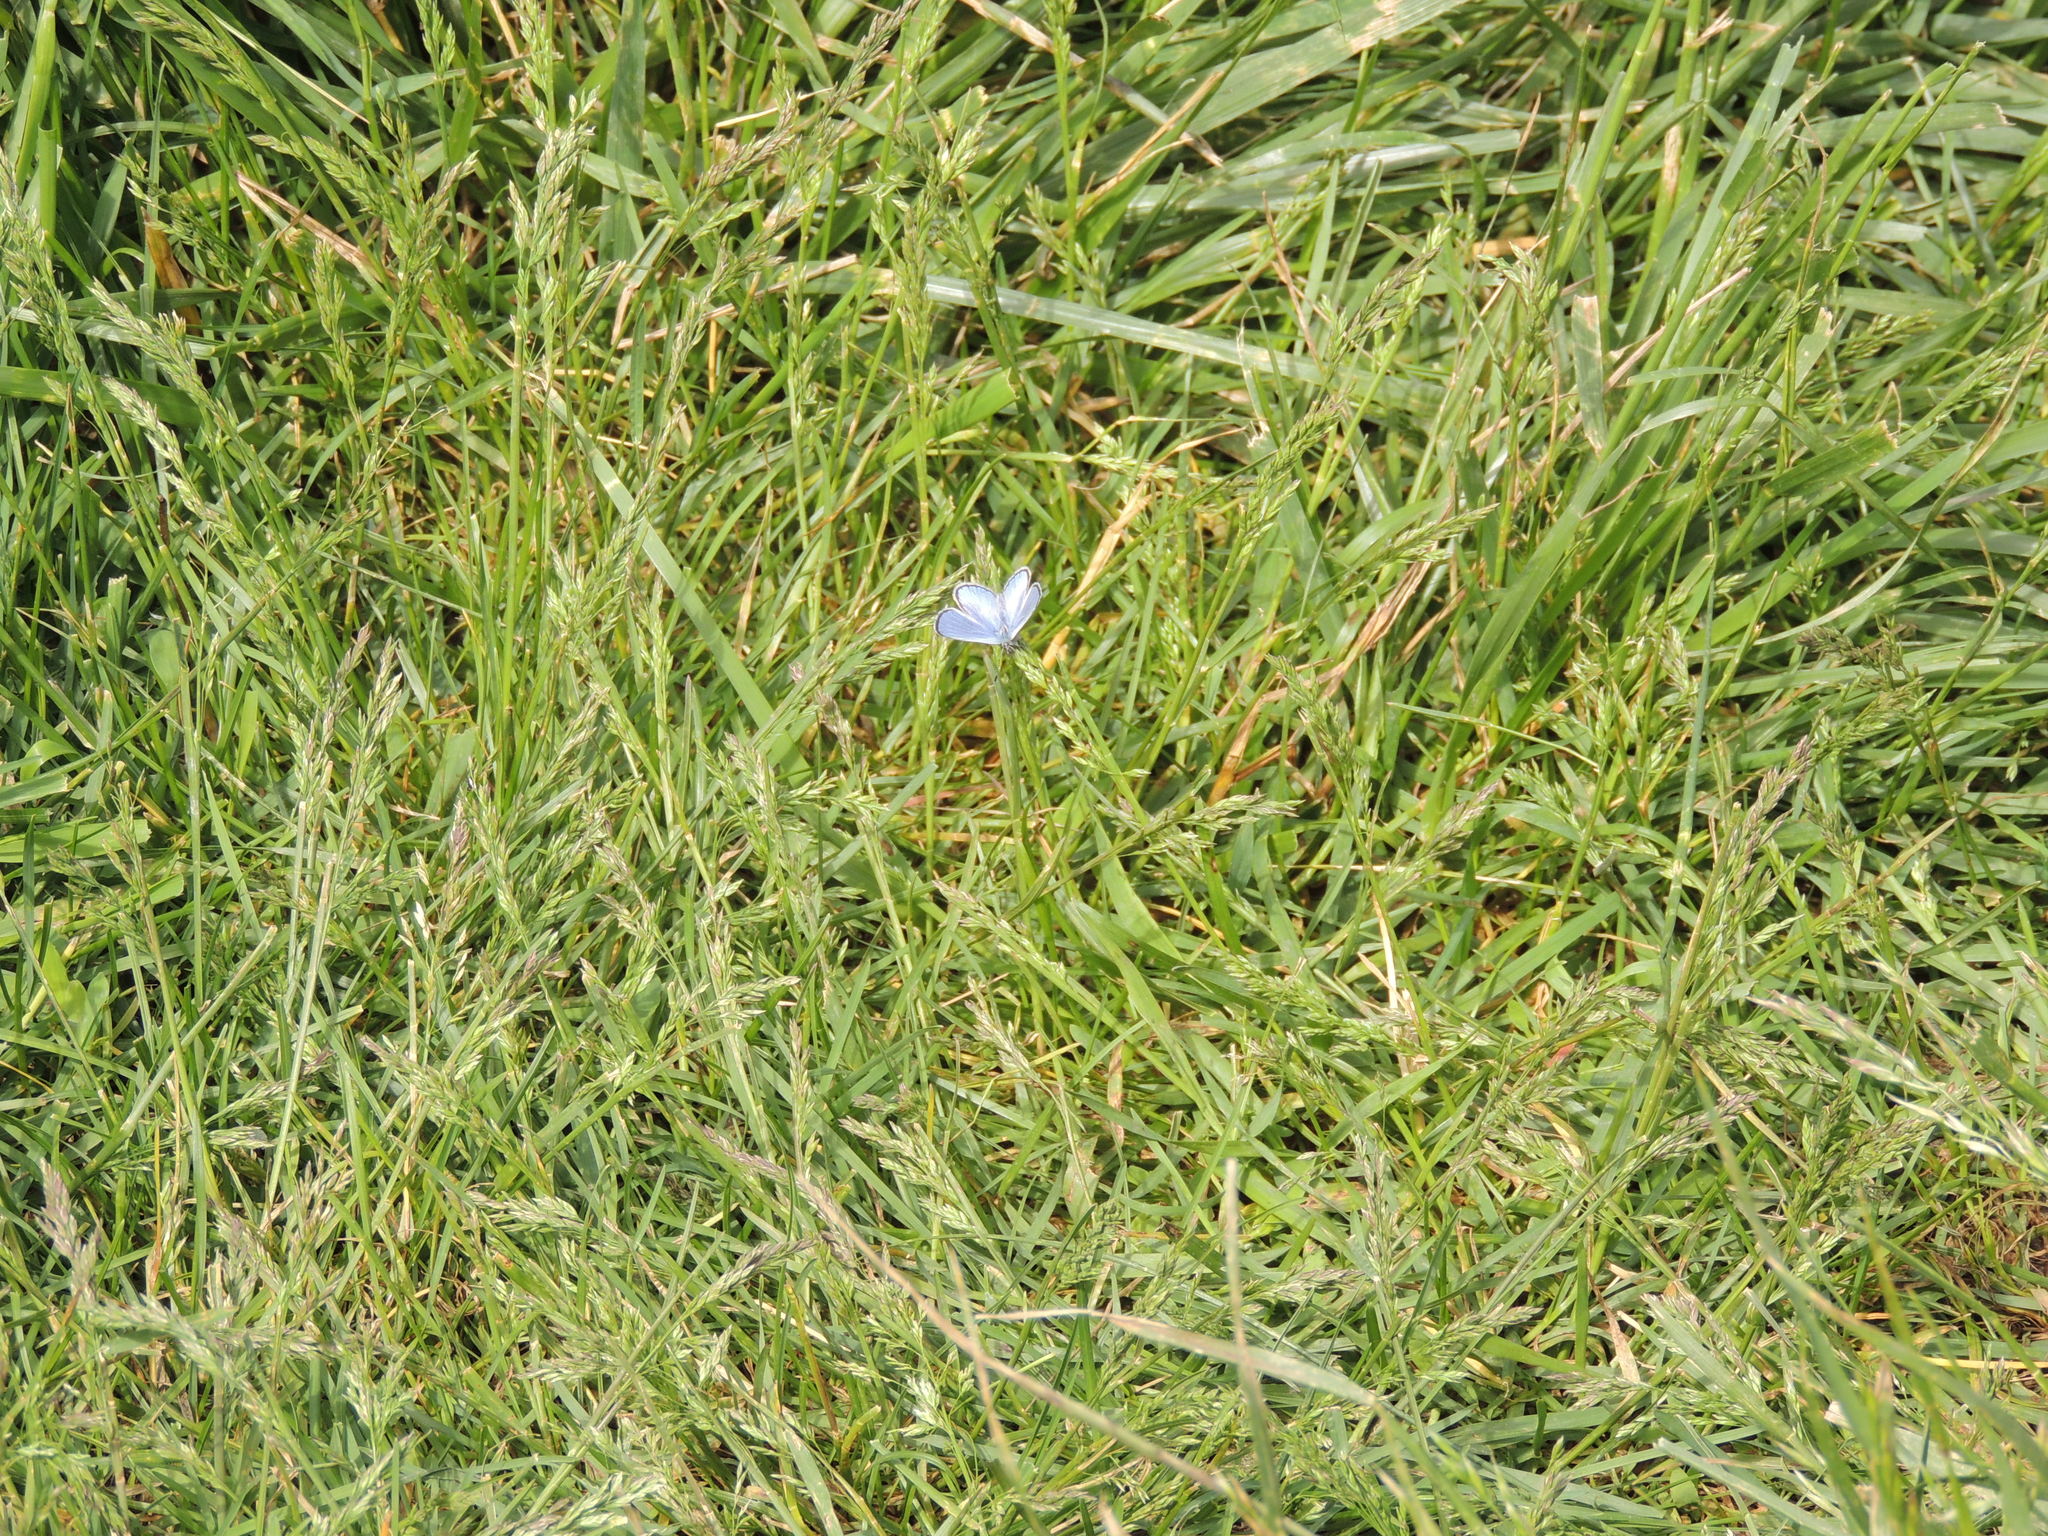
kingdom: Animalia
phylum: Arthropoda
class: Insecta
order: Lepidoptera
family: Lycaenidae
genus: Glaucopsyche
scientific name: Glaucopsyche lygdamus
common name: Silvery blue
